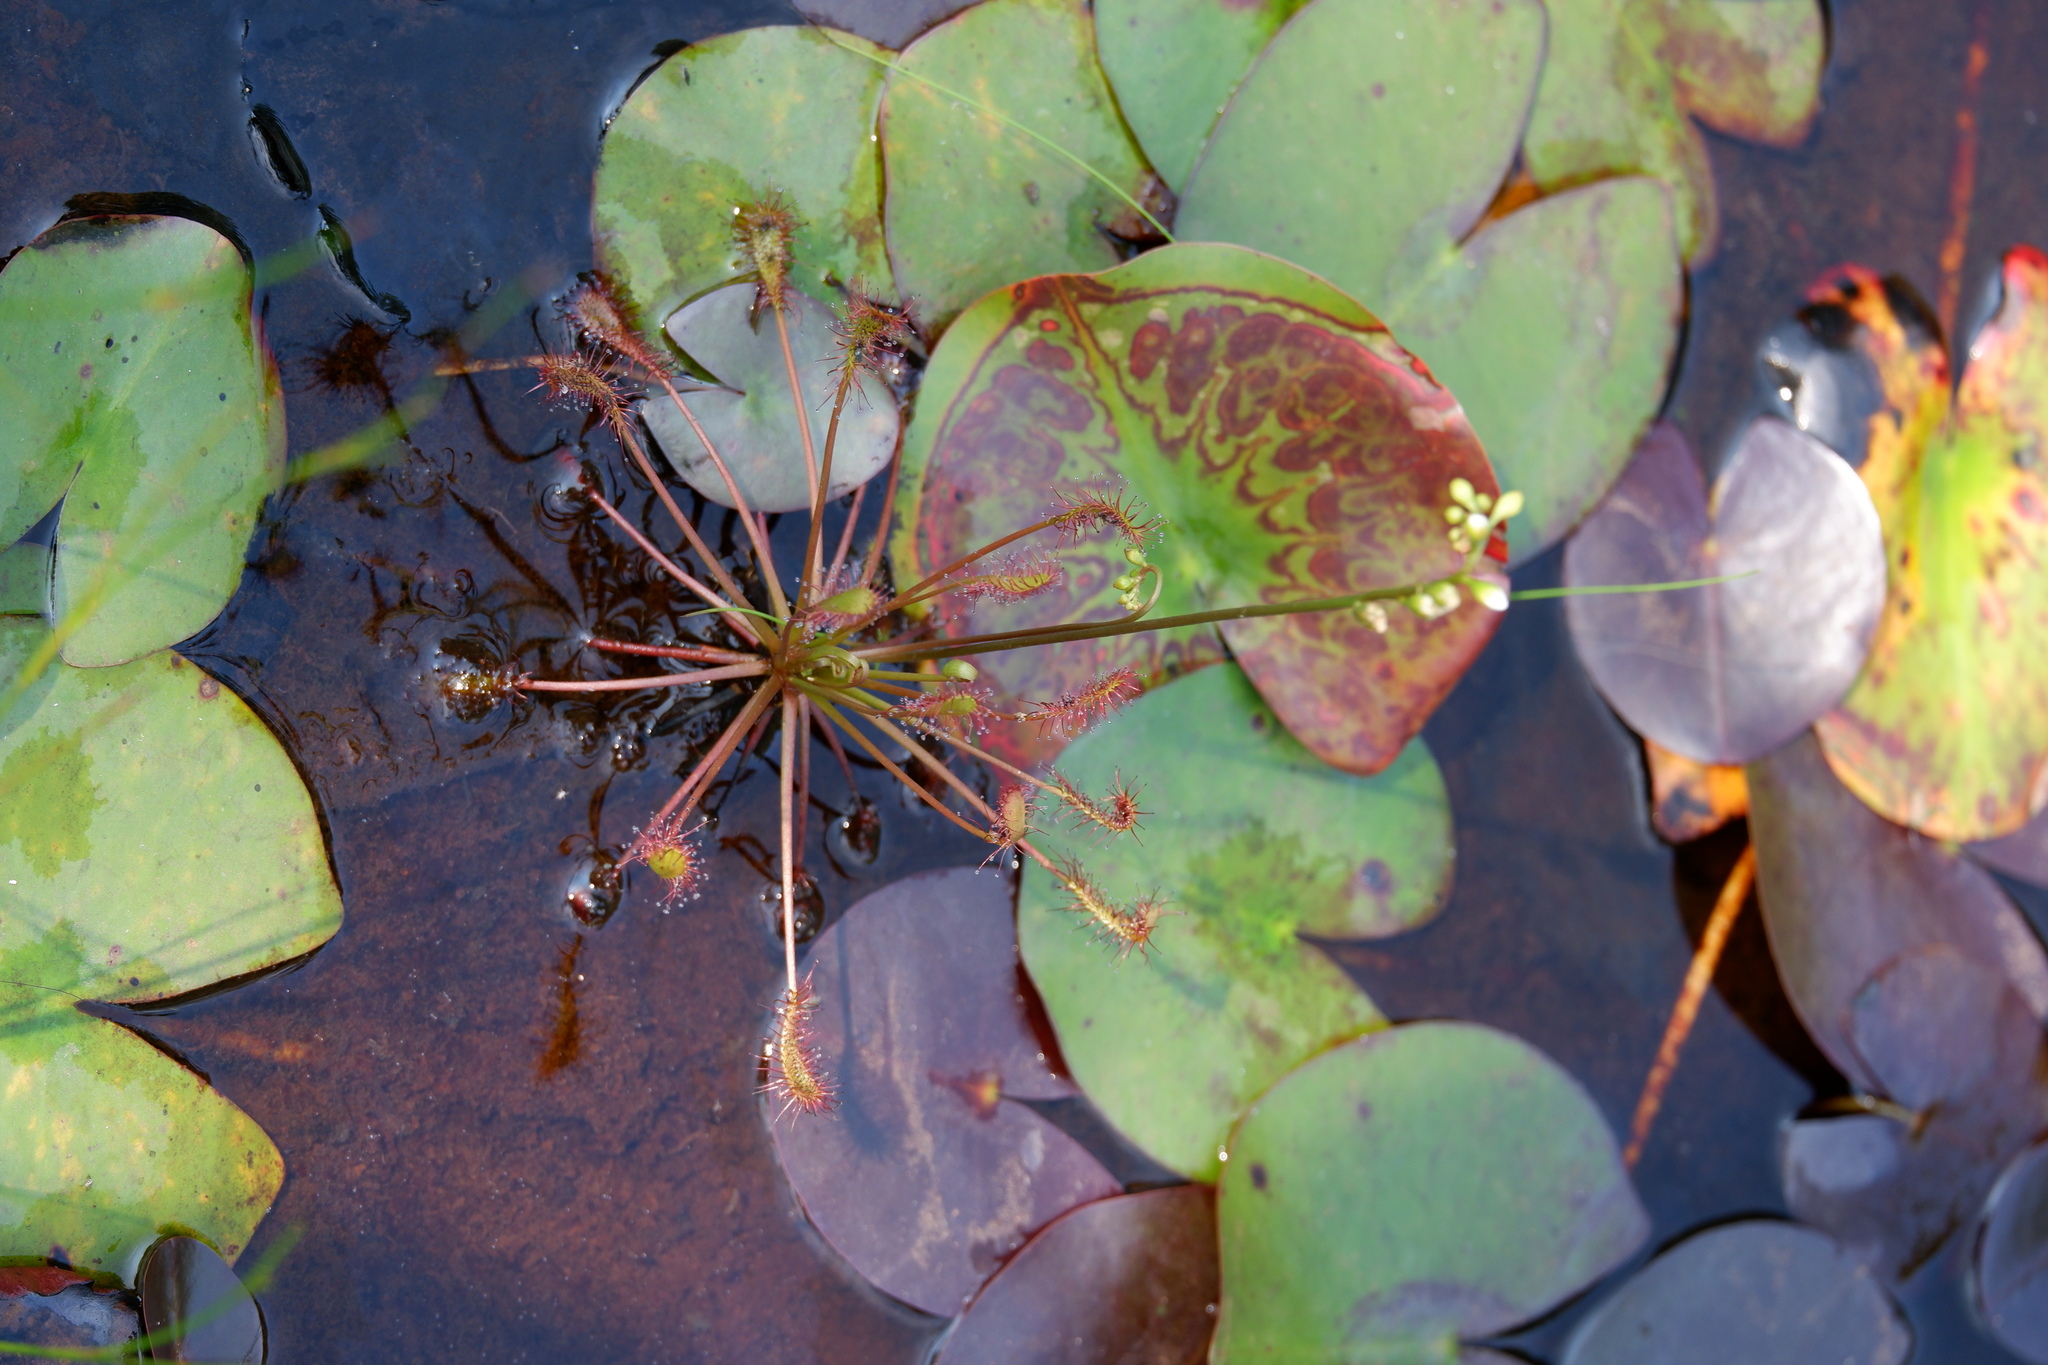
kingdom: Plantae
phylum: Tracheophyta
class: Magnoliopsida
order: Caryophyllales
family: Droseraceae
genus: Drosera
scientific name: Drosera intermedia
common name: Oblong-leaved sundew
